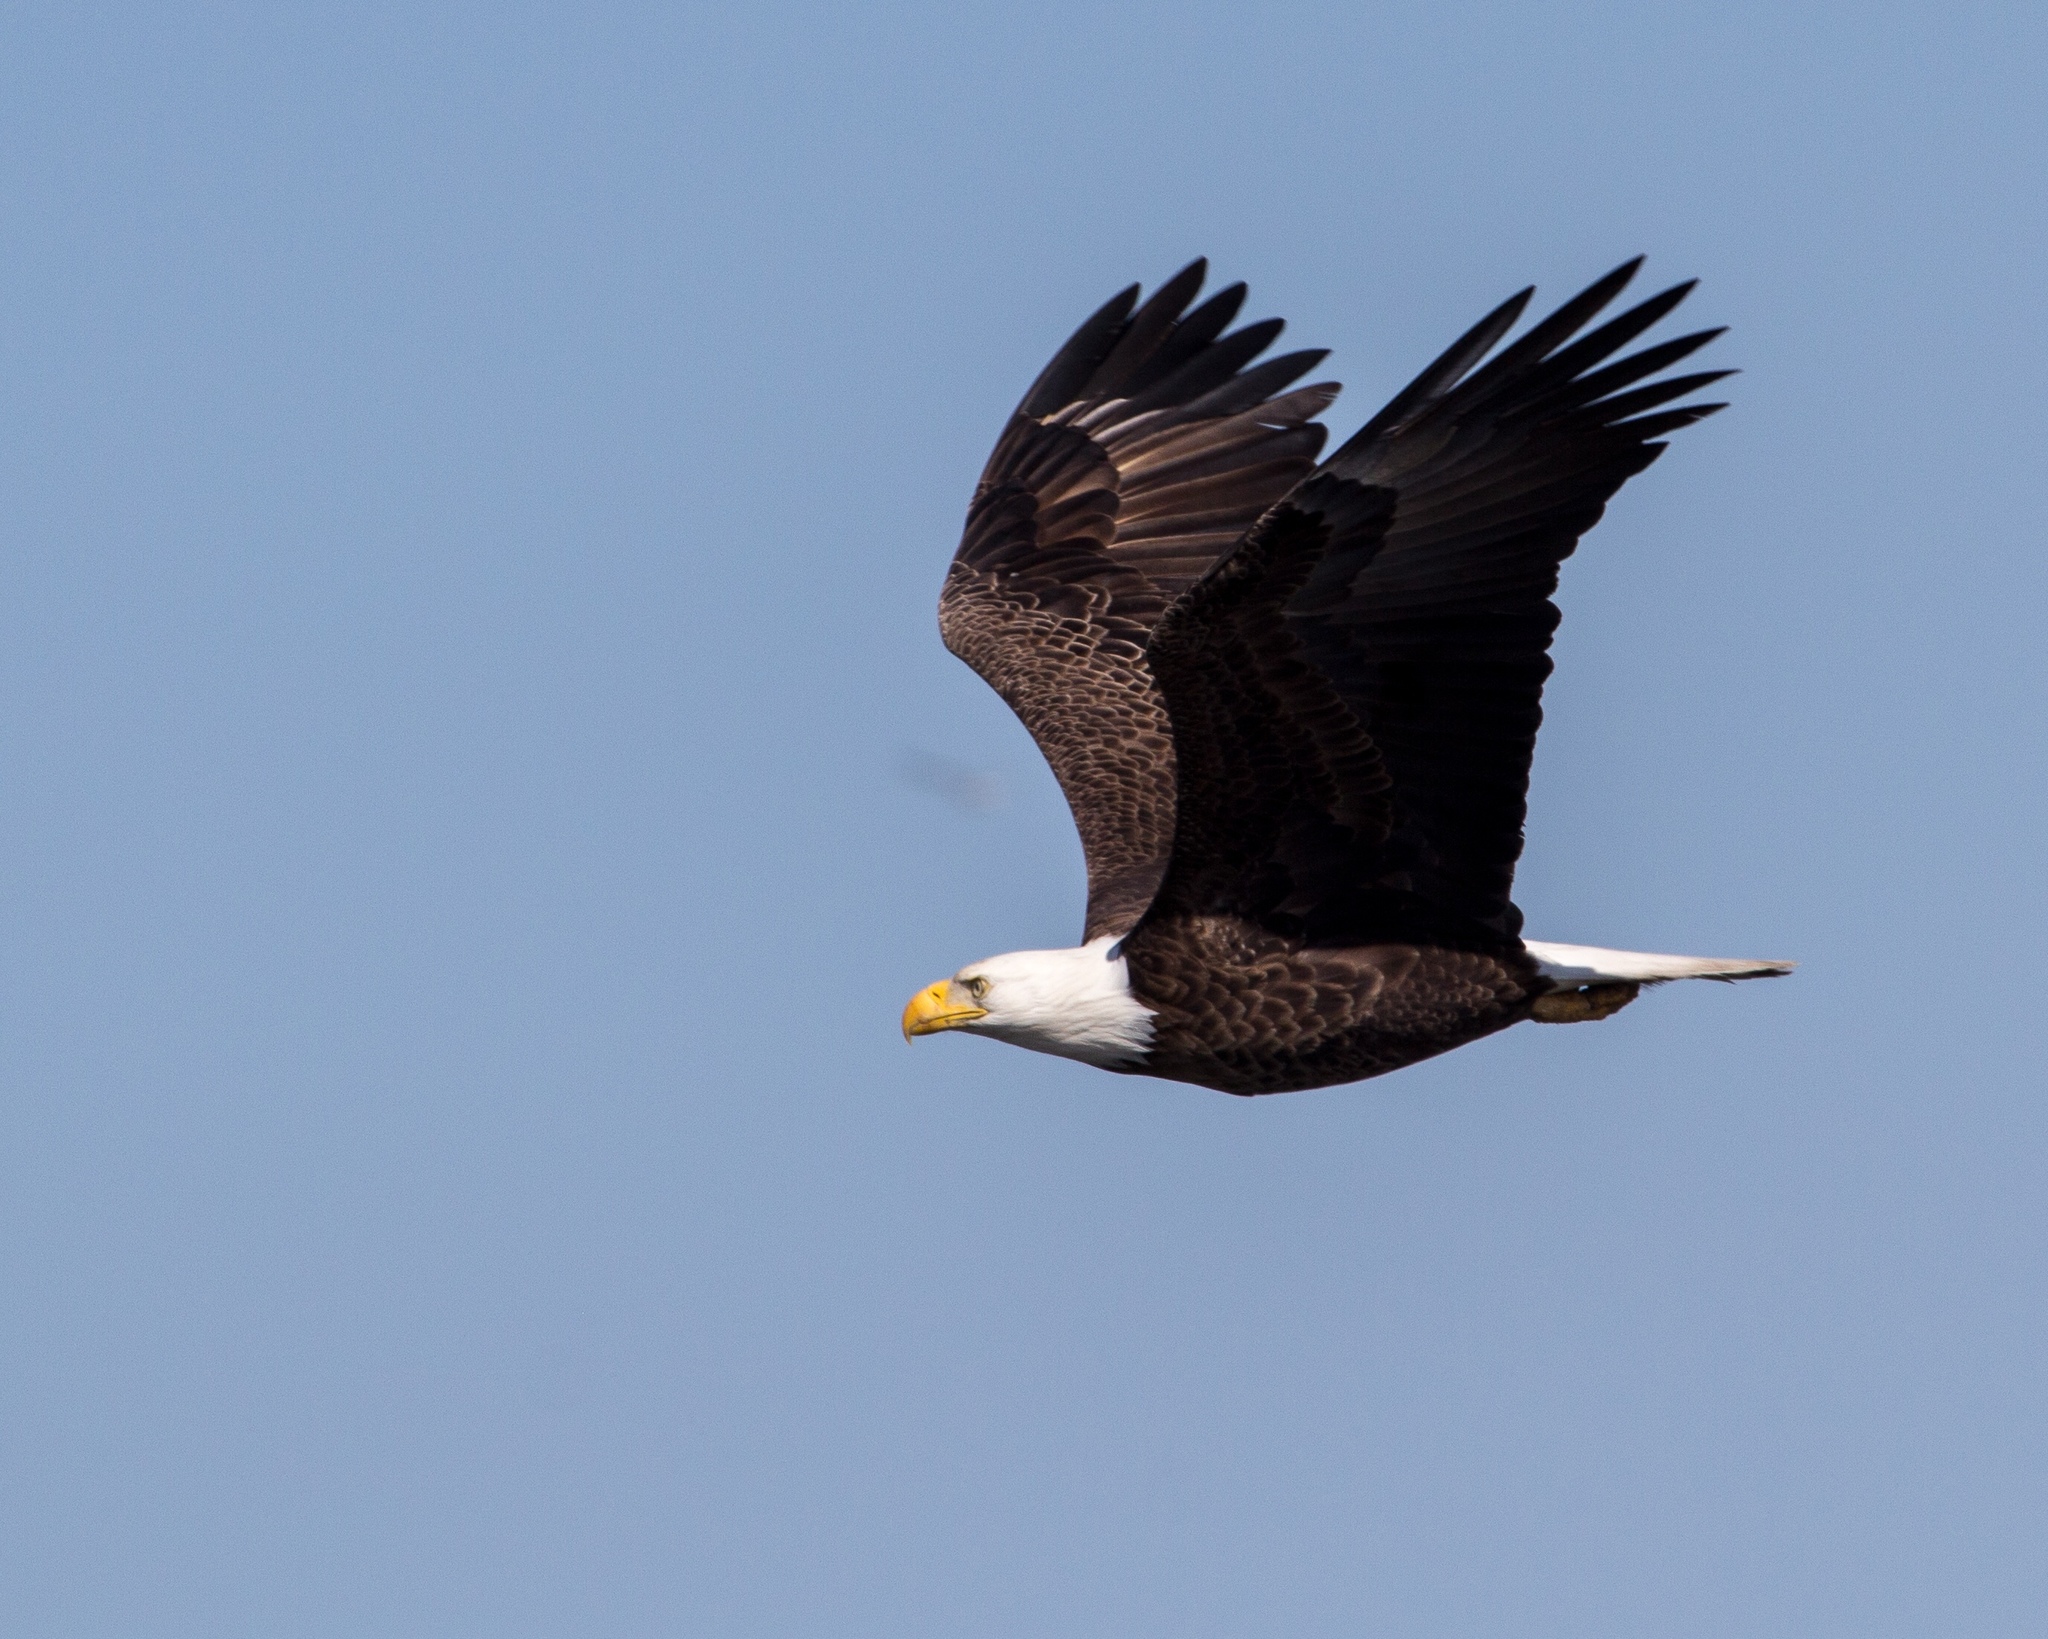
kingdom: Animalia
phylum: Chordata
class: Aves
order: Accipitriformes
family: Accipitridae
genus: Haliaeetus
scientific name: Haliaeetus leucocephalus
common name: Bald eagle
